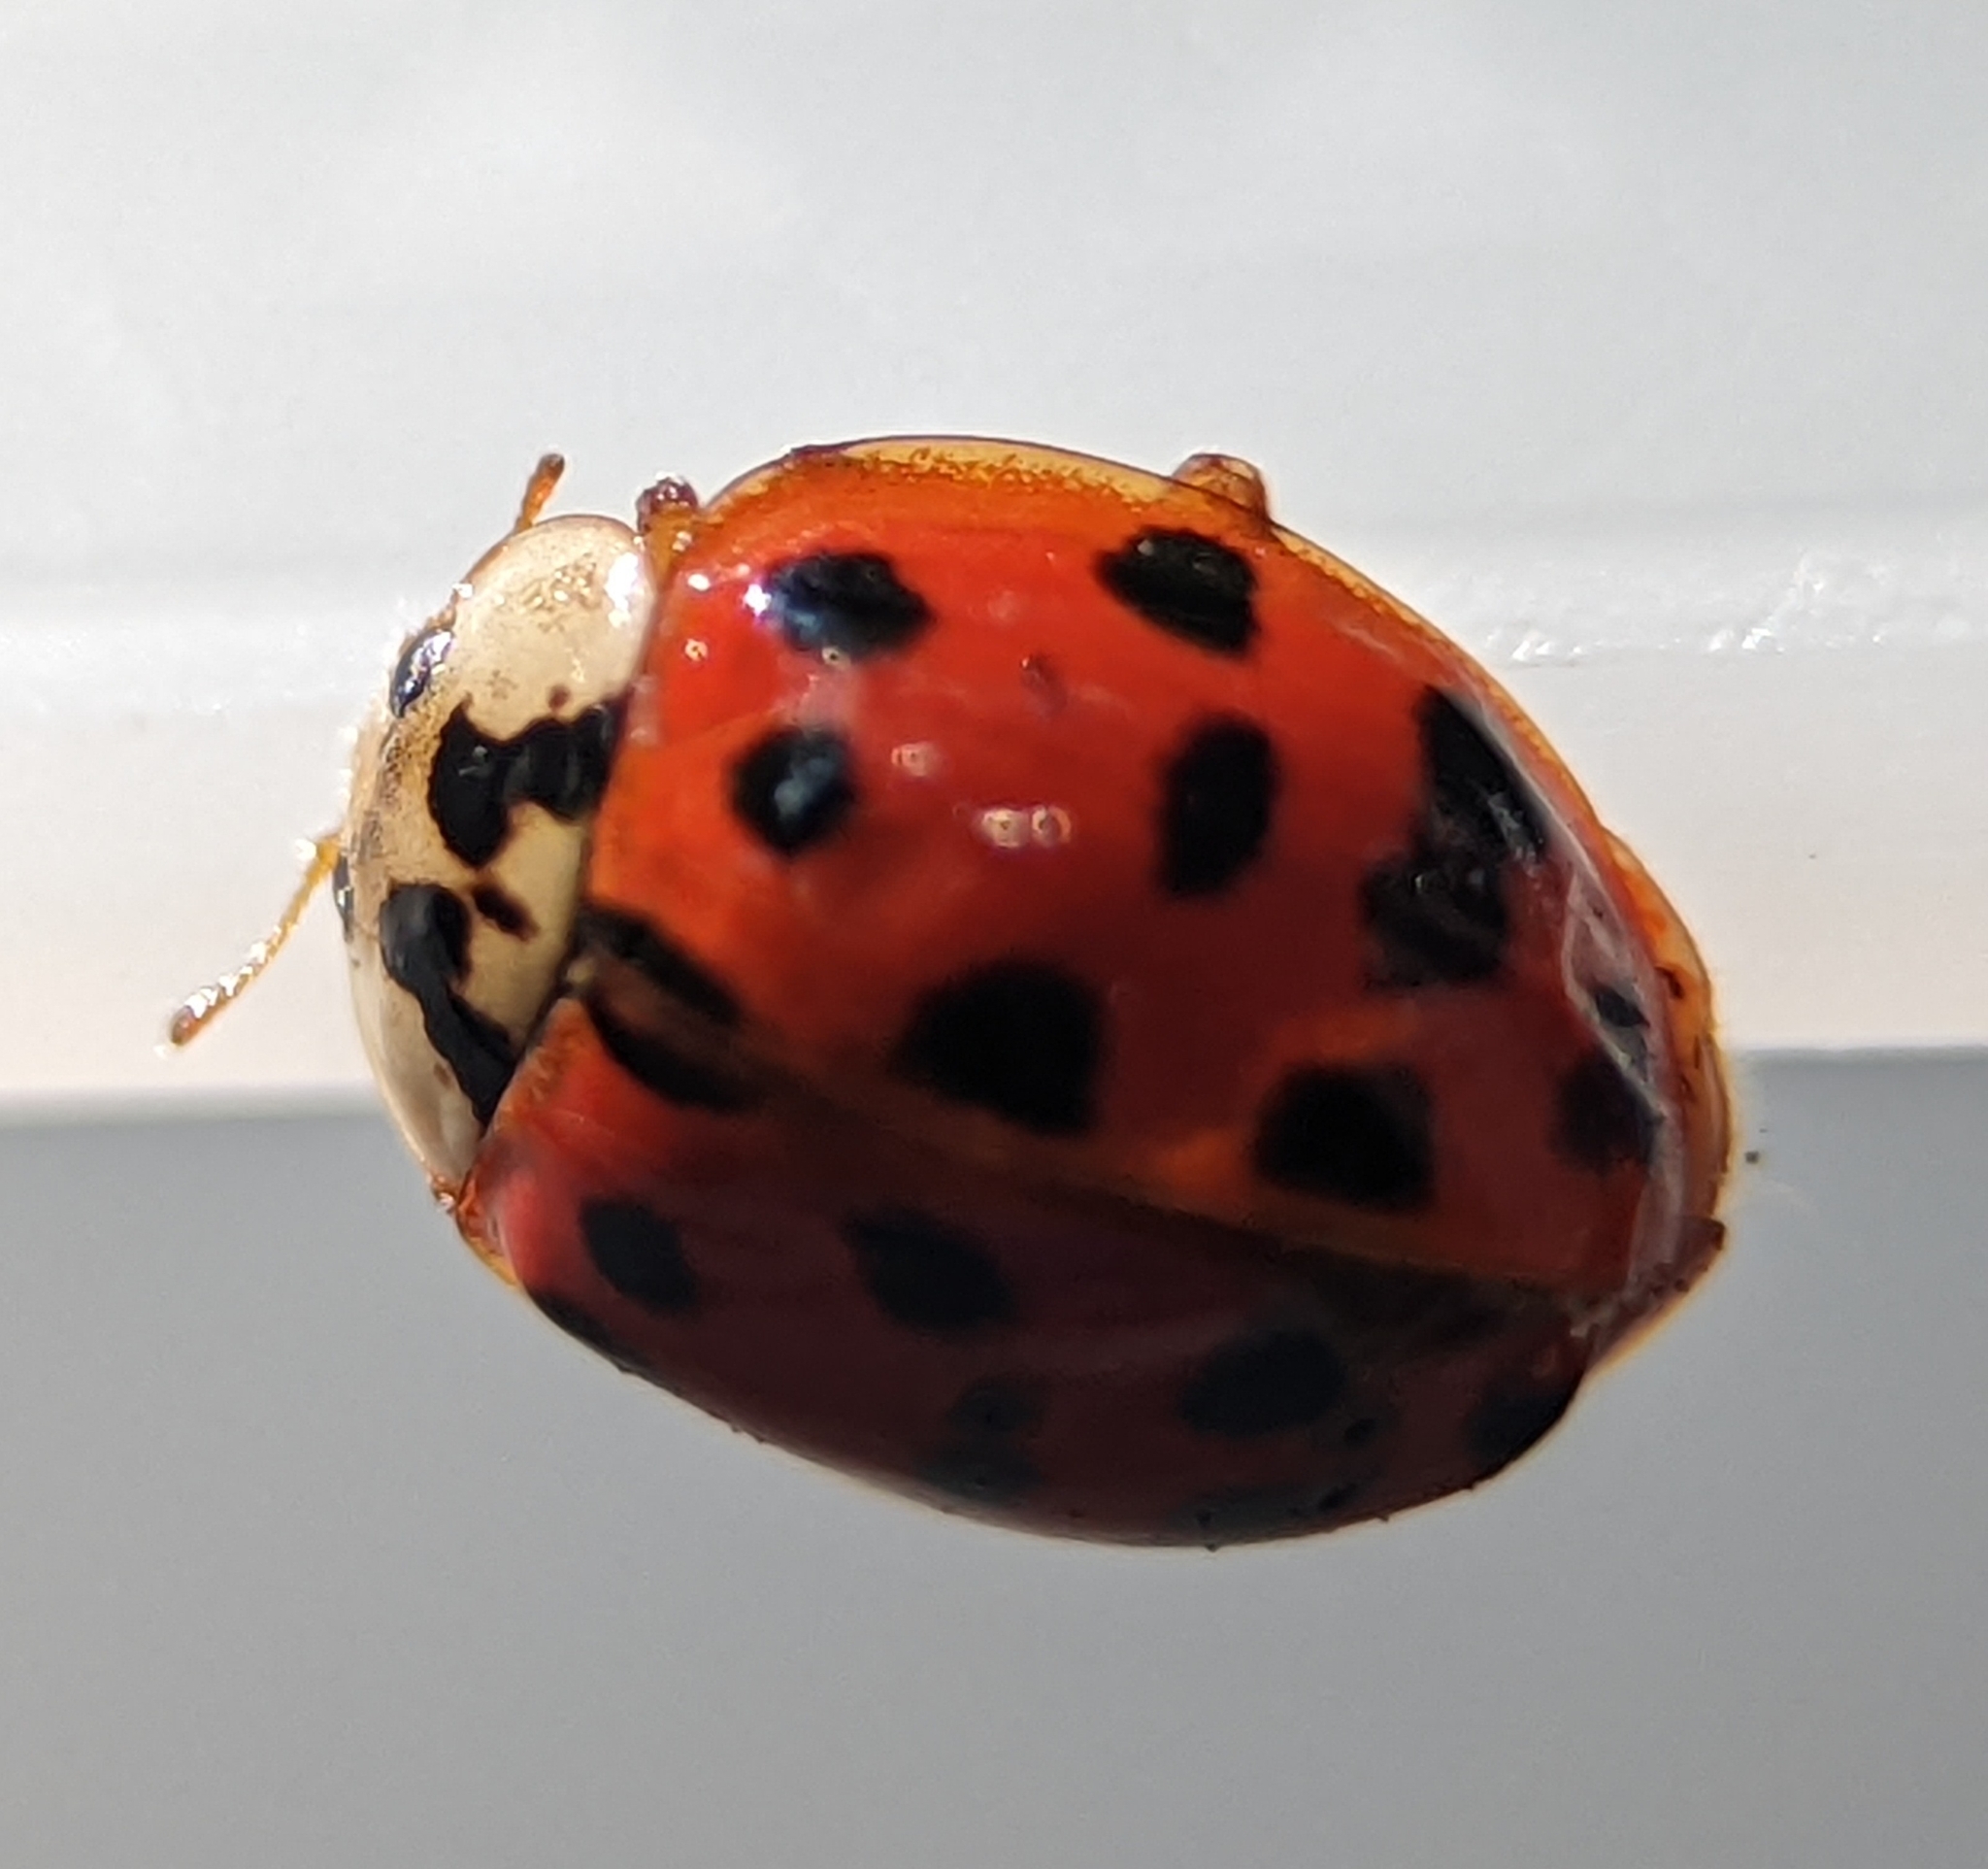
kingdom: Animalia
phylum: Arthropoda
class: Insecta
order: Coleoptera
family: Coccinellidae
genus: Harmonia
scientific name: Harmonia axyridis
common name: Harlequin ladybird
